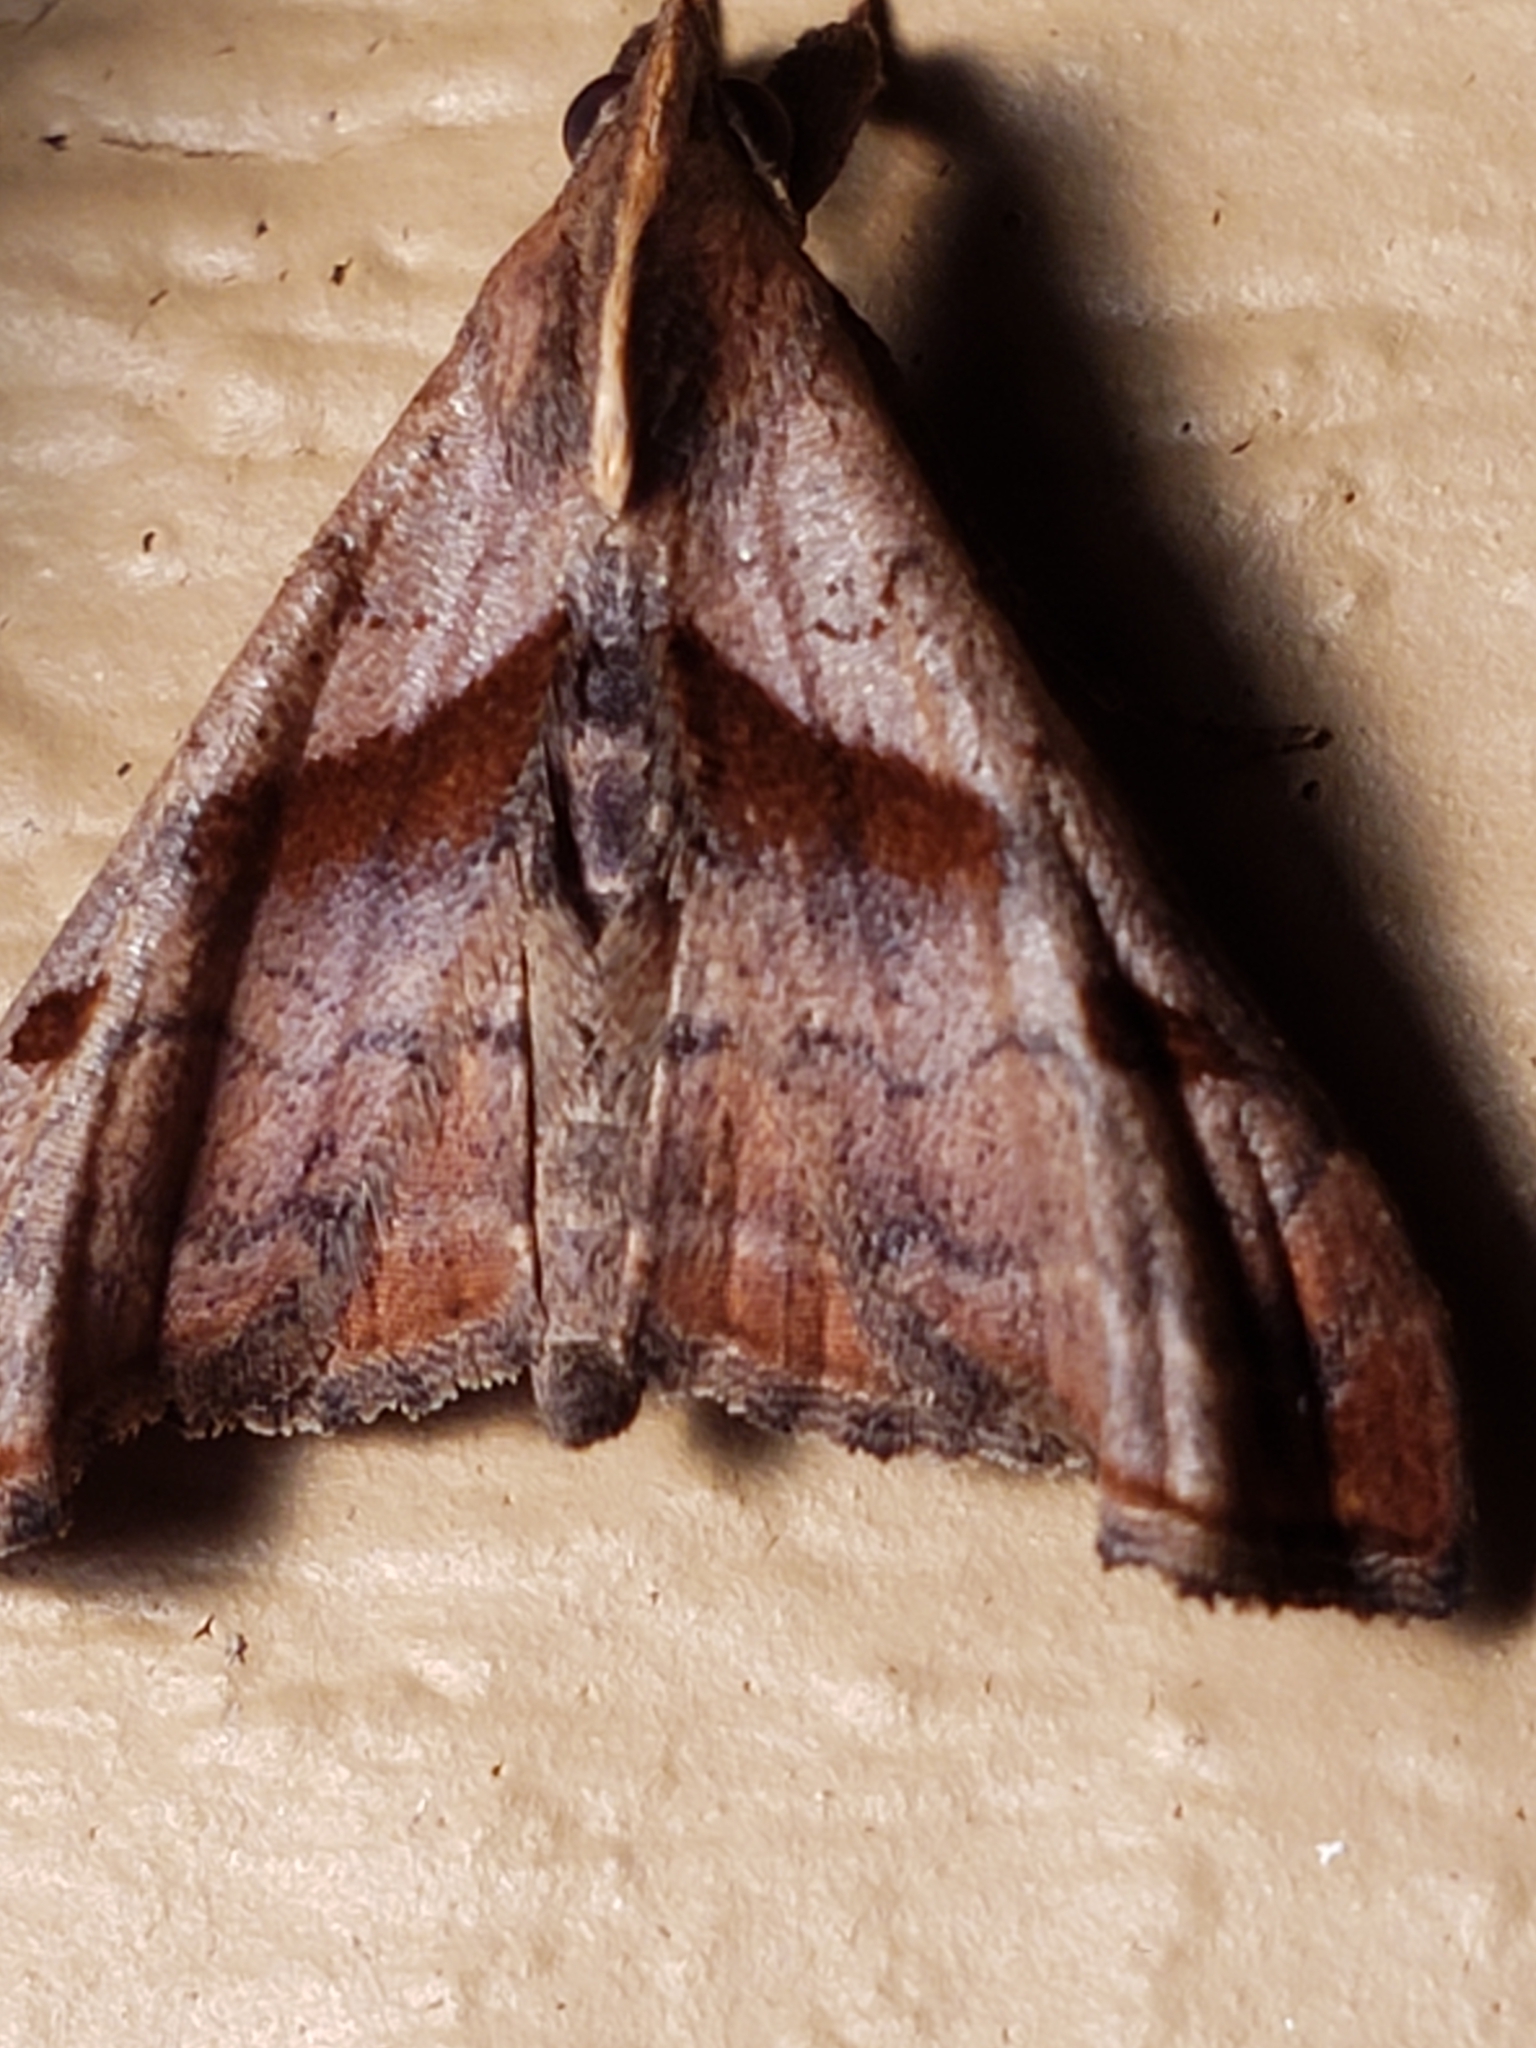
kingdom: Animalia
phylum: Arthropoda
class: Insecta
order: Lepidoptera
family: Erebidae
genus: Palthis
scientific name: Palthis angulalis
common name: Dark-spotted palthis moth
